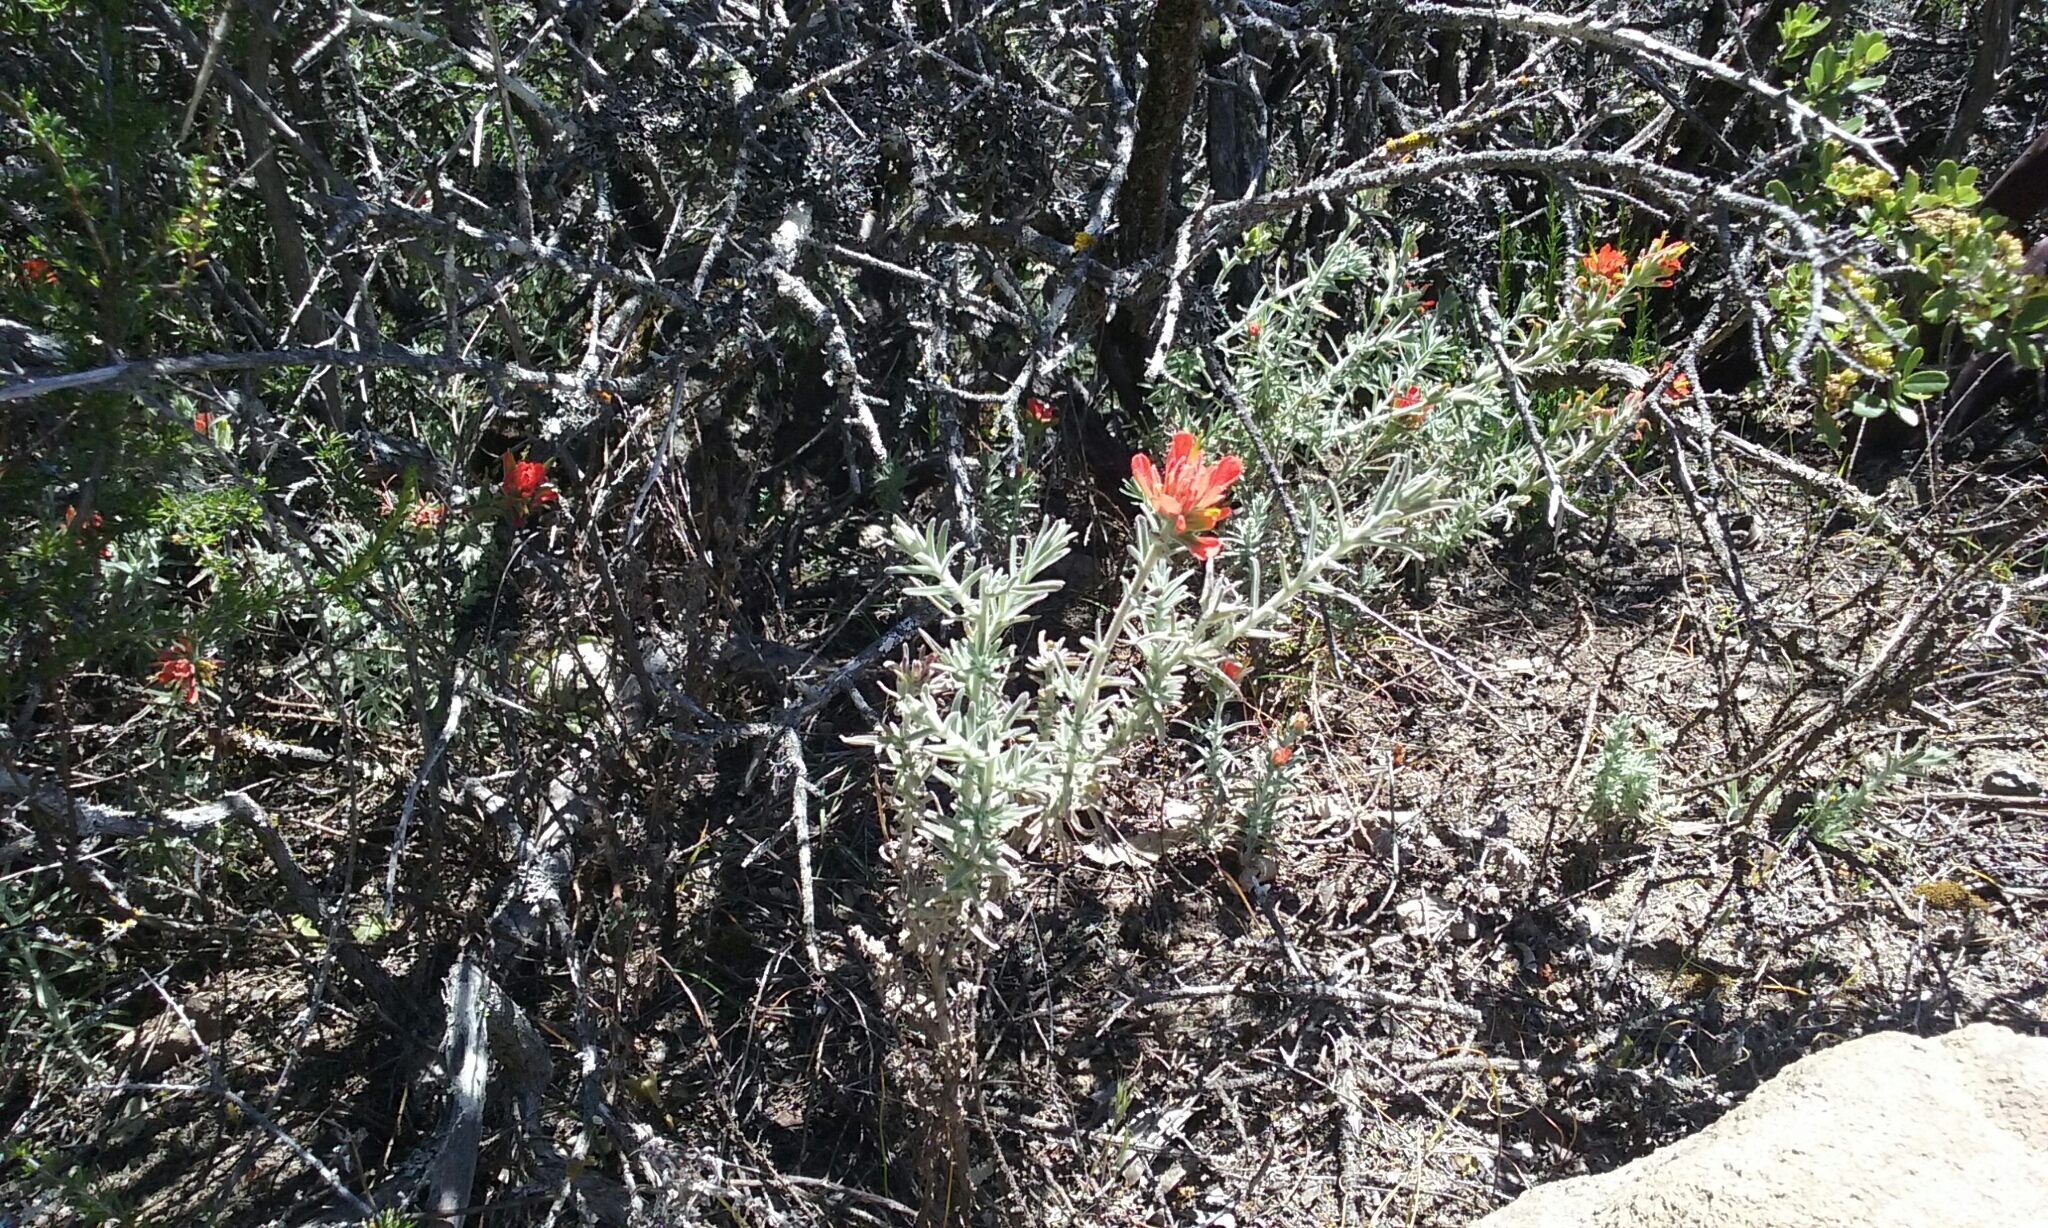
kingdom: Plantae
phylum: Tracheophyta
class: Magnoliopsida
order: Lamiales
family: Orobanchaceae
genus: Castilleja
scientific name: Castilleja foliolosa
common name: Woolly indian paintbrush
